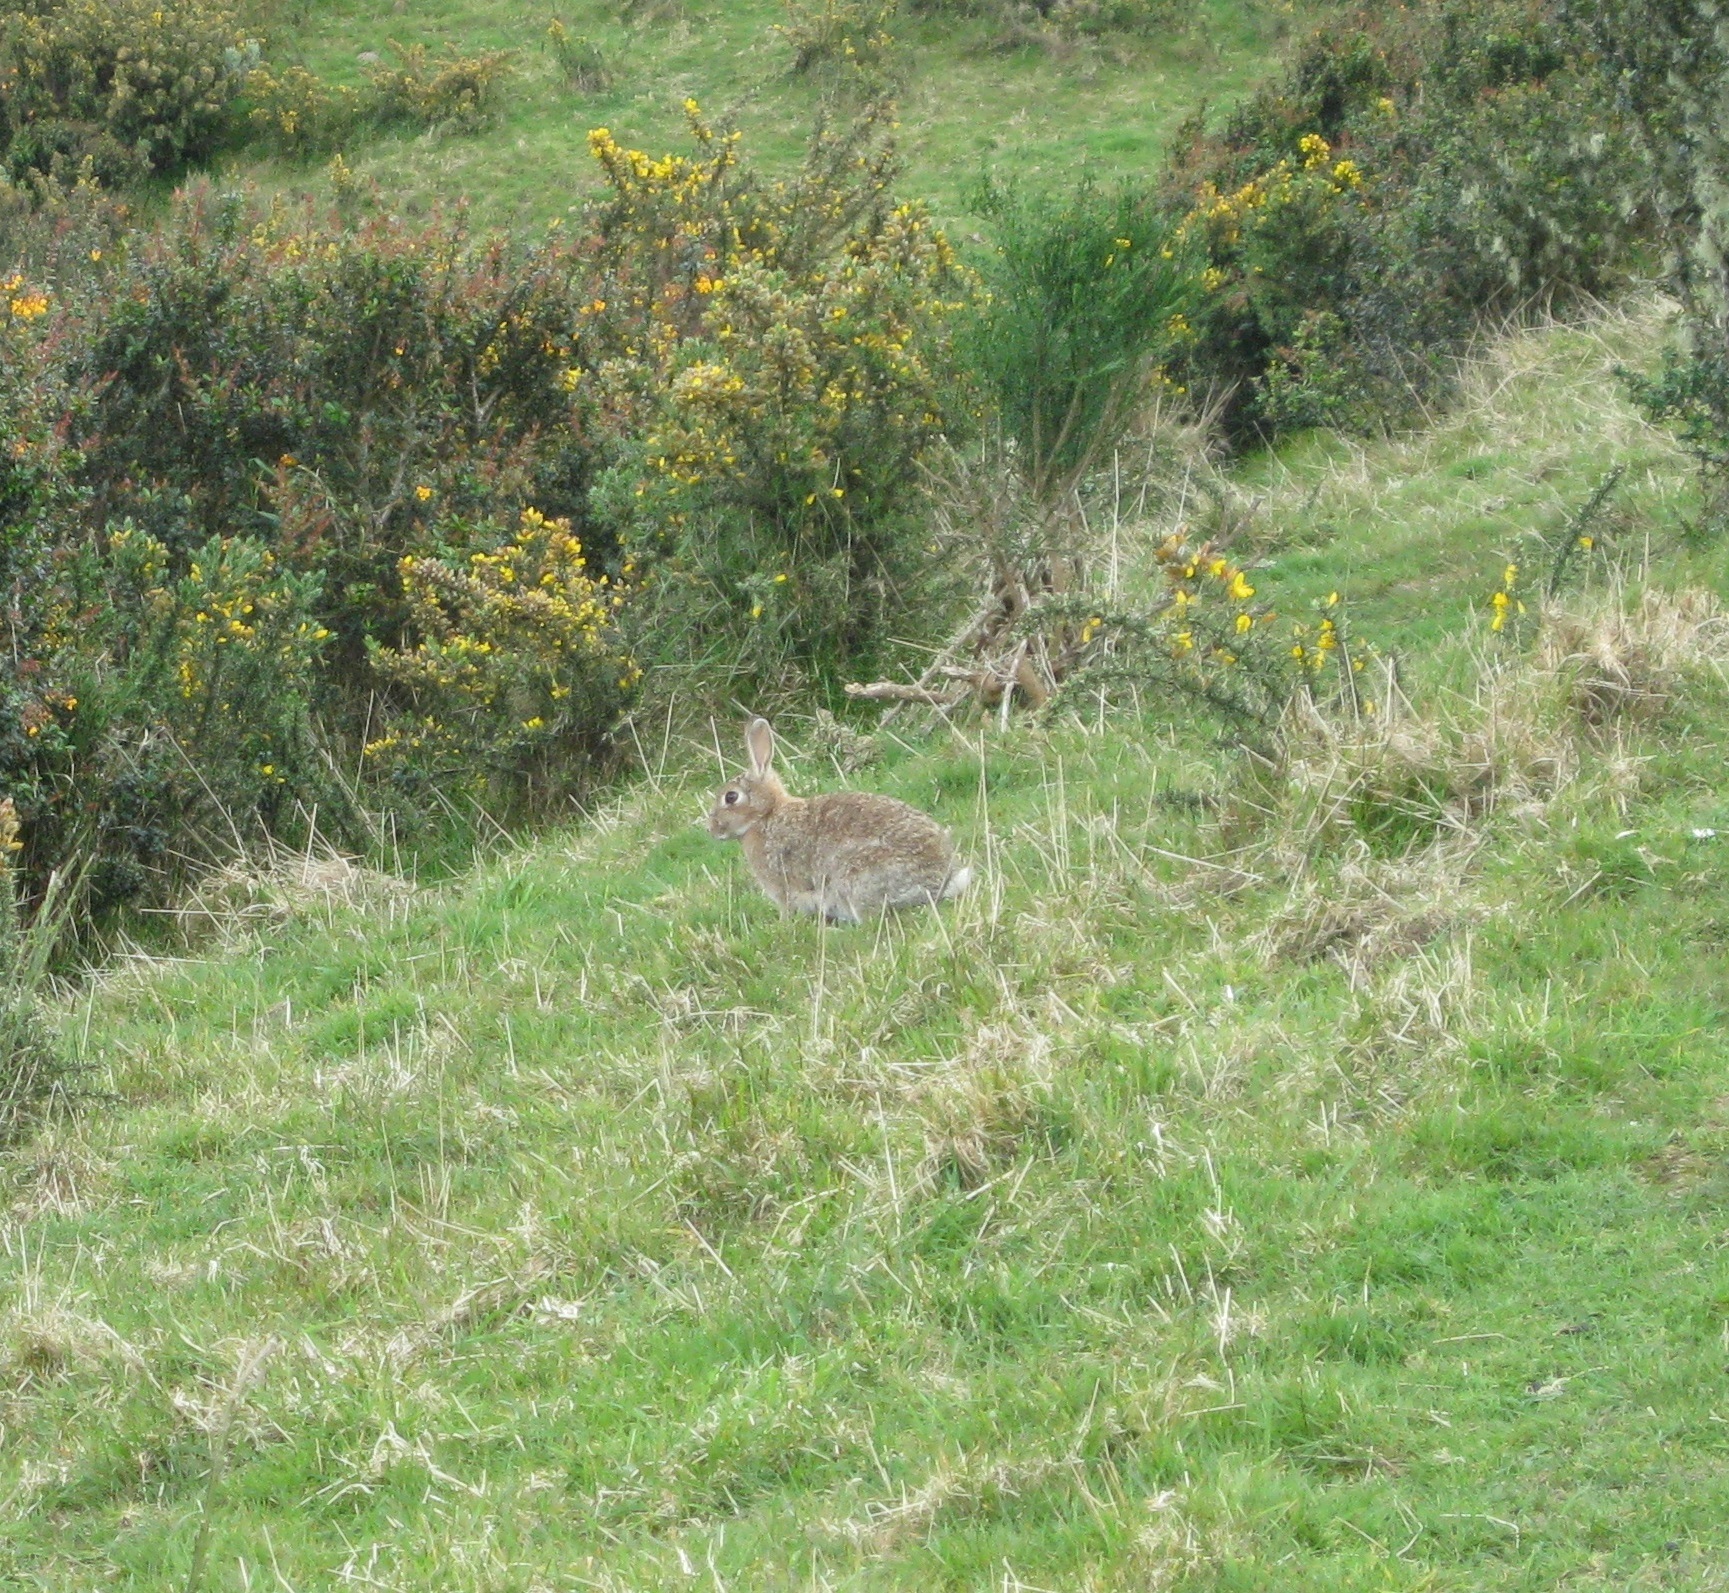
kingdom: Animalia
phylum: Chordata
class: Mammalia
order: Lagomorpha
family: Leporidae
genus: Oryctolagus
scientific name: Oryctolagus cuniculus
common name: European rabbit
